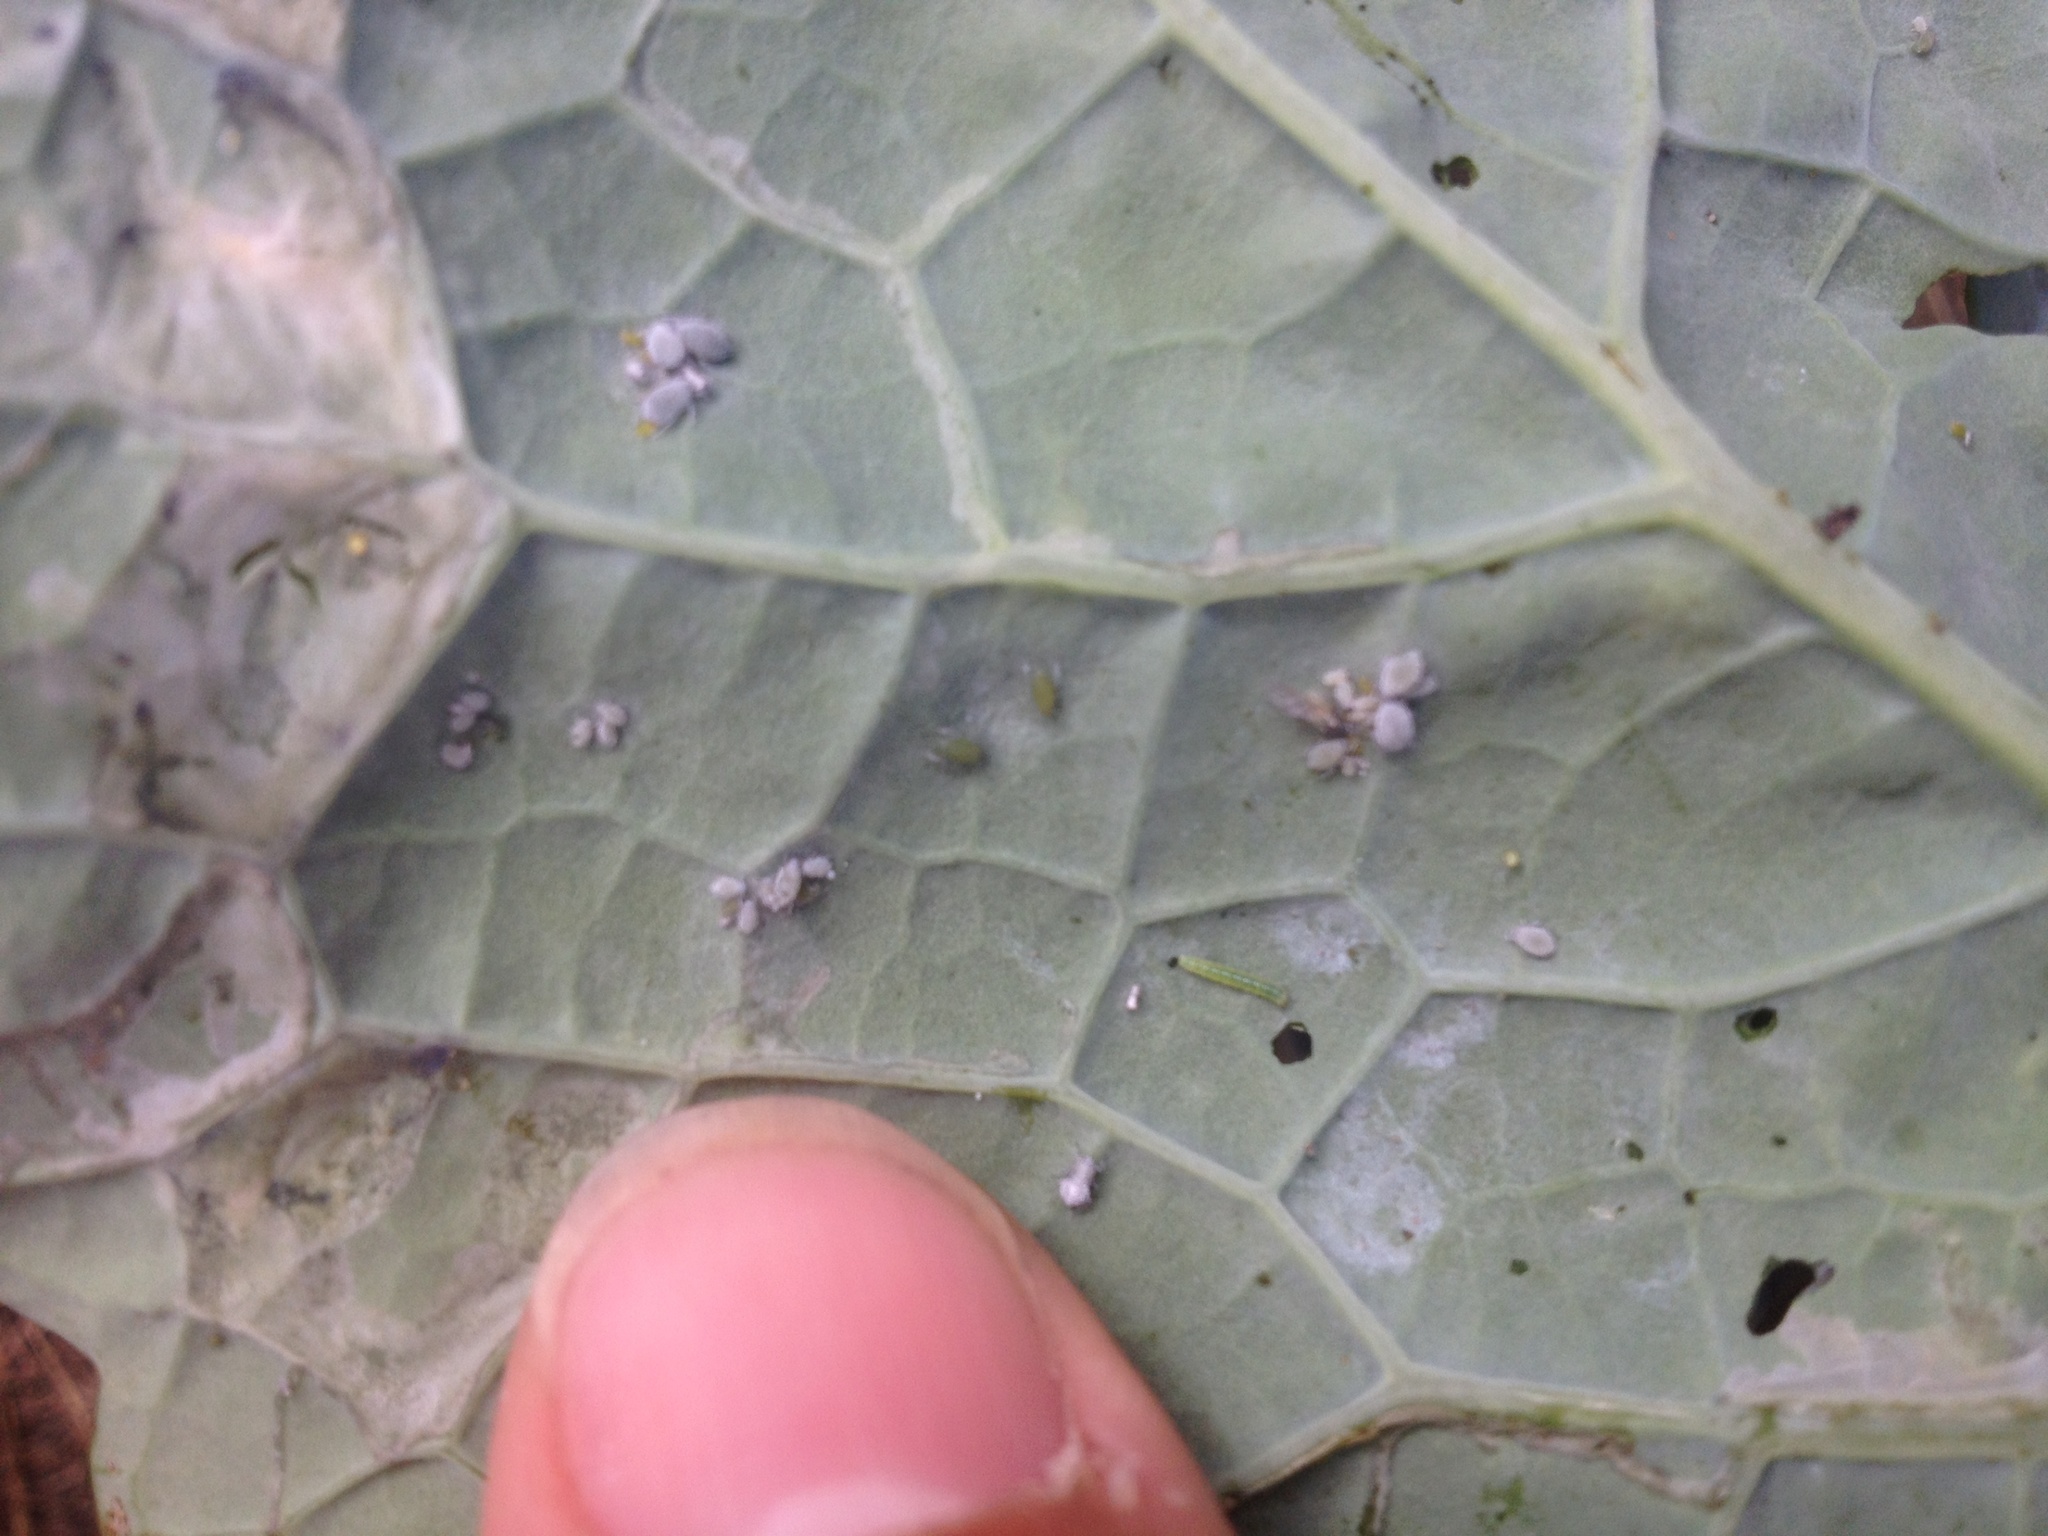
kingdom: Animalia
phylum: Arthropoda
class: Insecta
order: Lepidoptera
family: Pieridae
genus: Pieris
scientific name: Pieris rapae
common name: Small white
